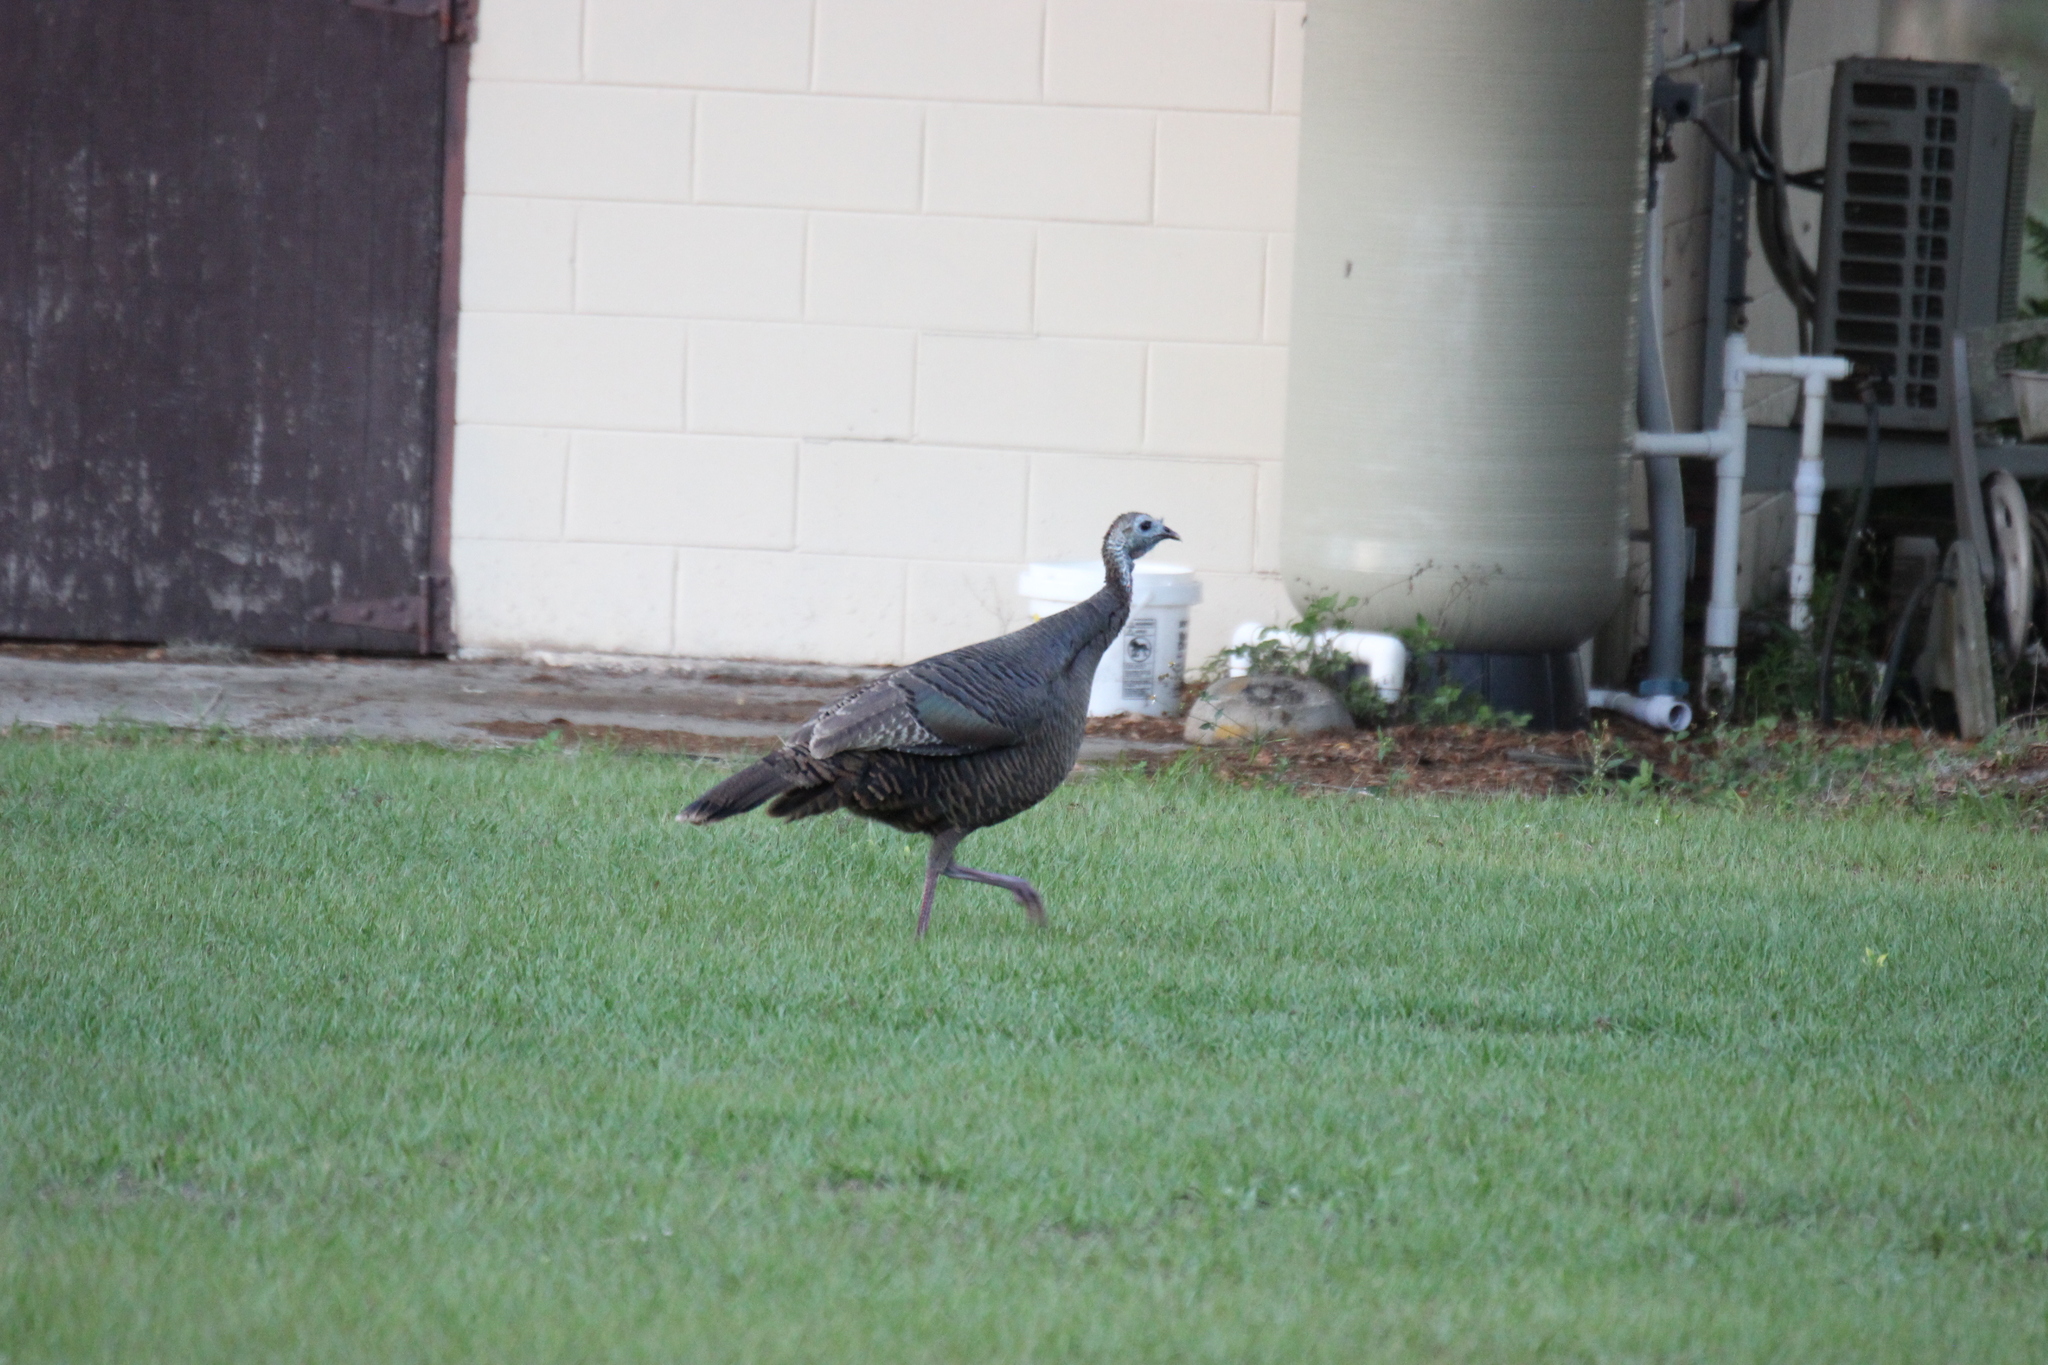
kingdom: Animalia
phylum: Chordata
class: Aves
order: Galliformes
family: Phasianidae
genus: Meleagris
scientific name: Meleagris gallopavo
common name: Wild turkey
